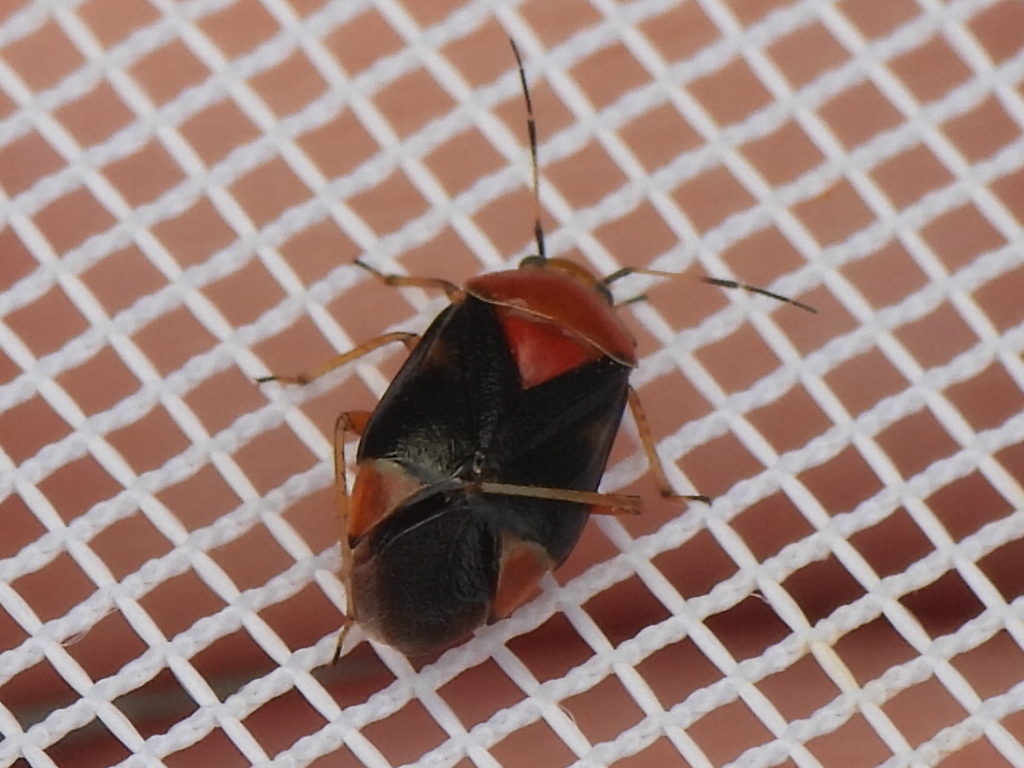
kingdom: Animalia
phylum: Arthropoda
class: Insecta
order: Hemiptera
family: Miridae
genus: Neocapsus
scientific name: Neocapsus cuneatus
